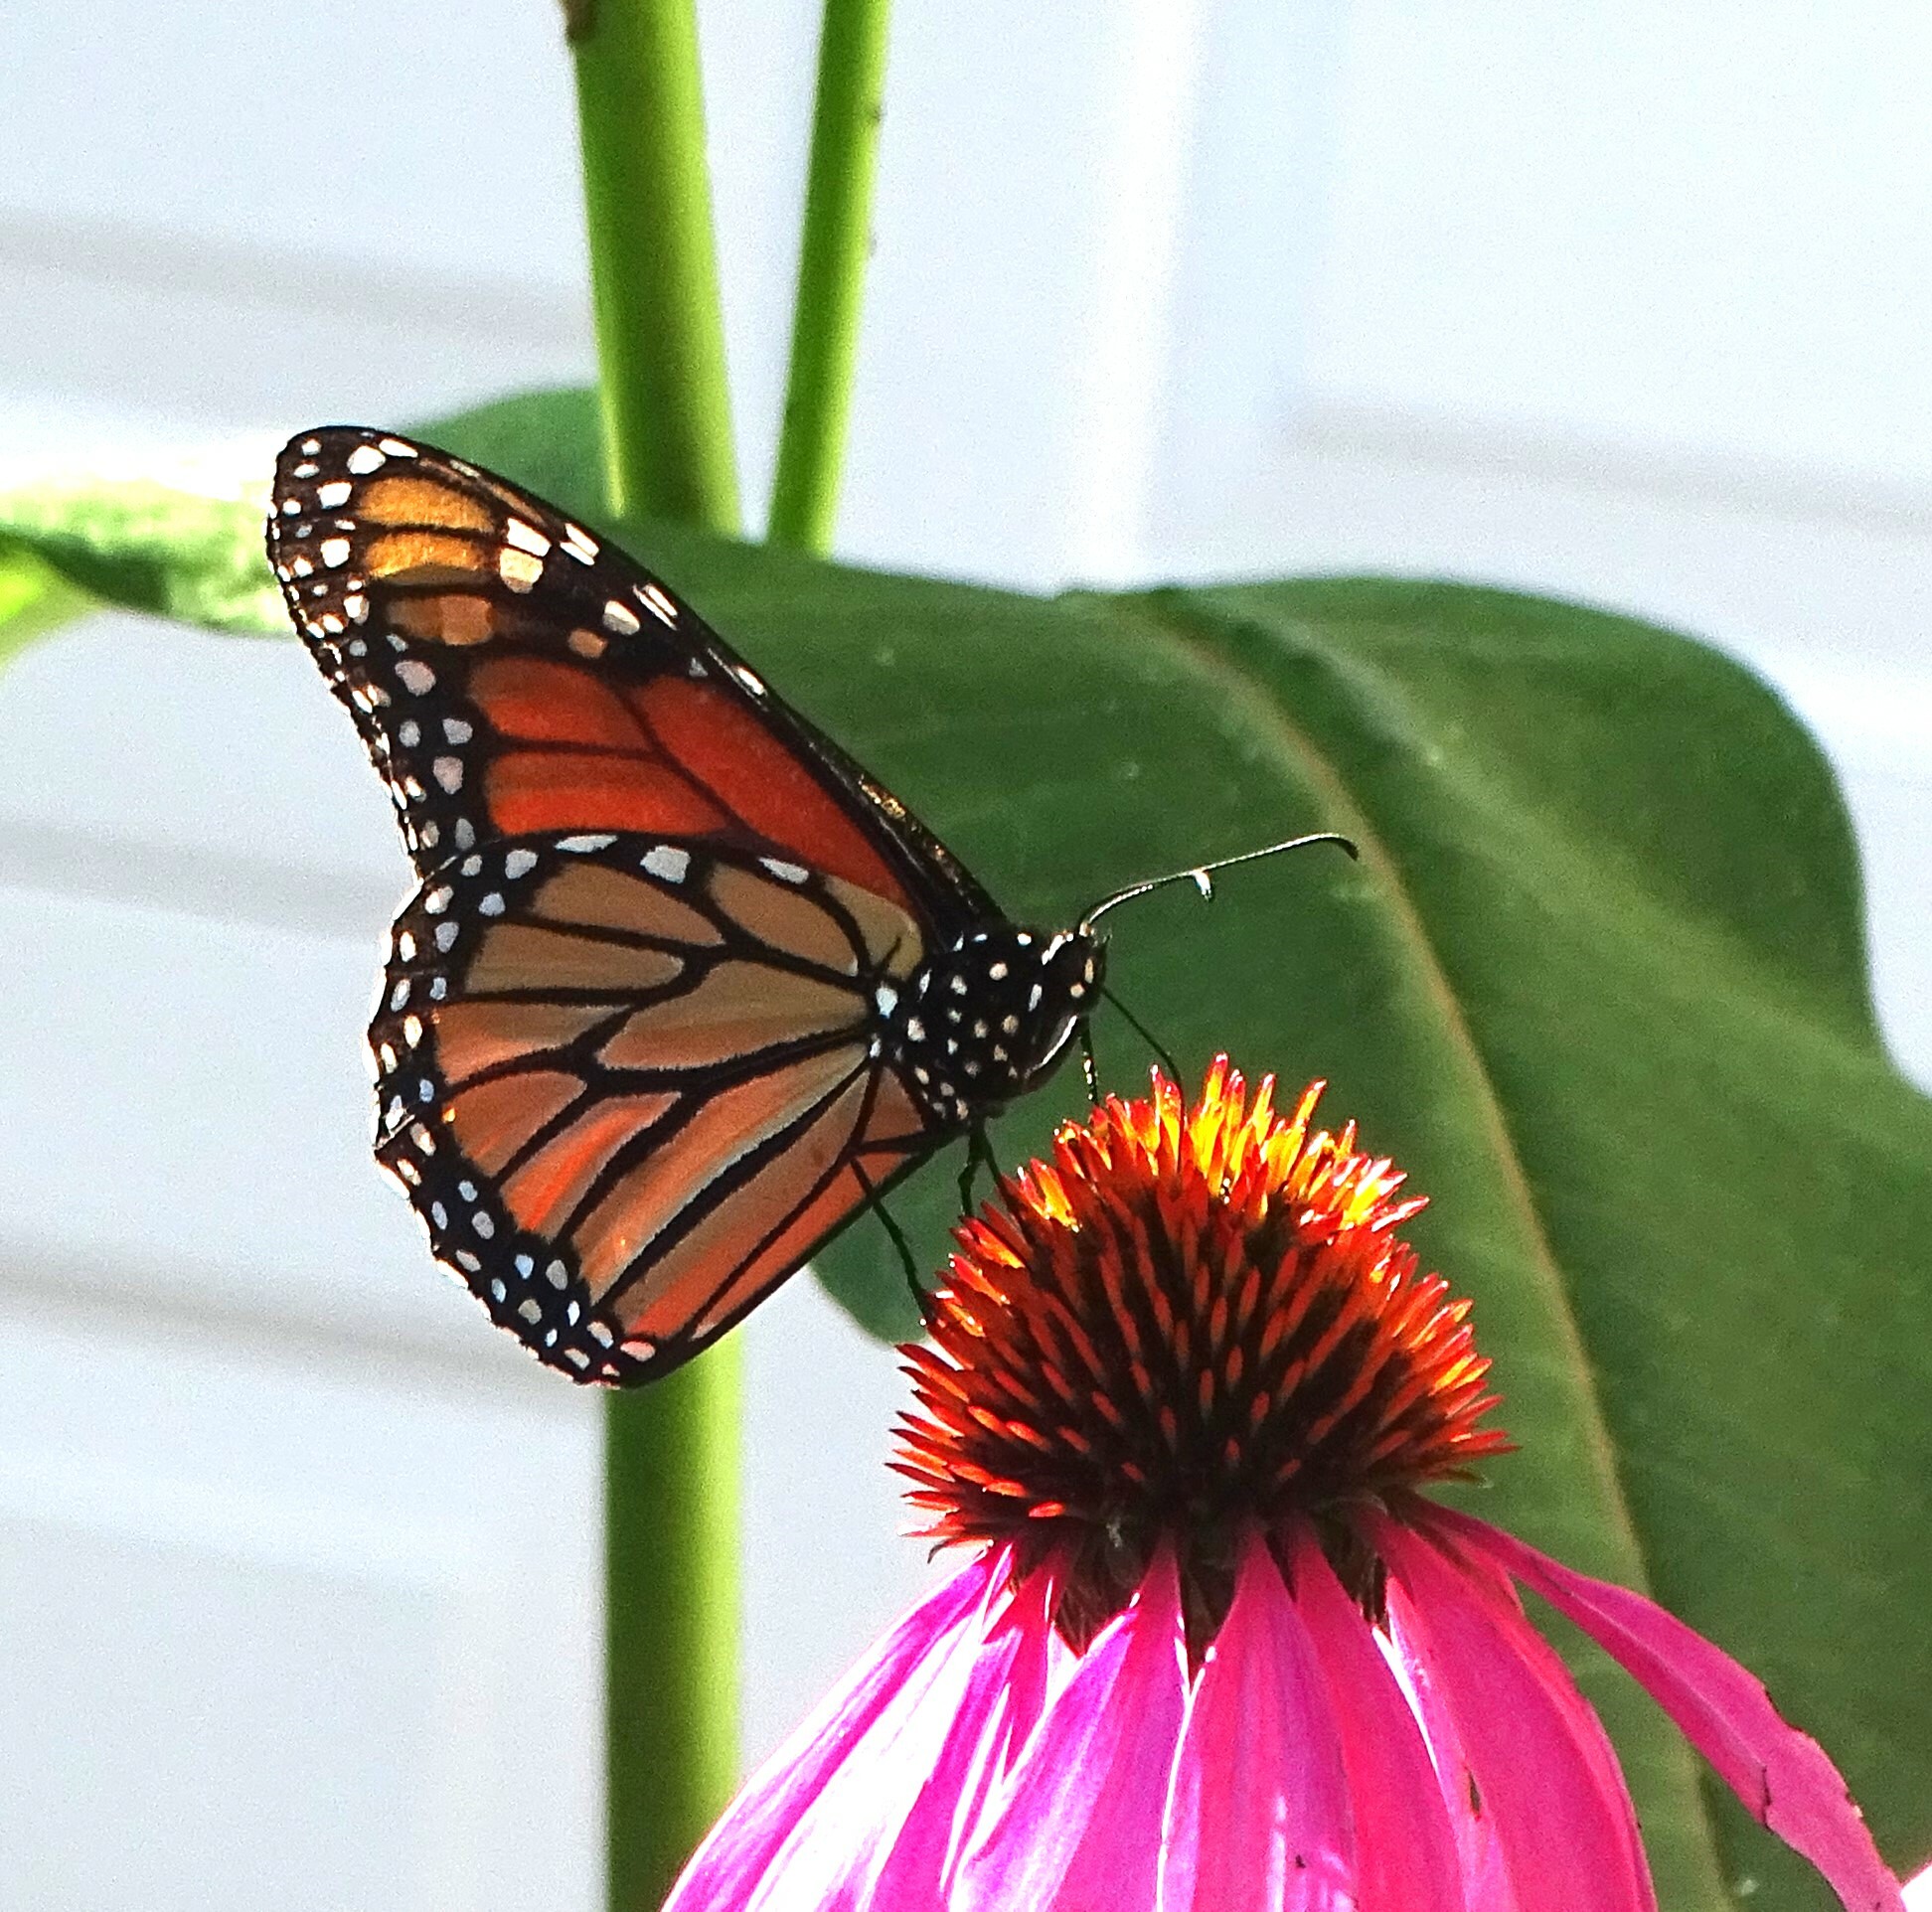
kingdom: Animalia
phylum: Arthropoda
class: Insecta
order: Lepidoptera
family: Nymphalidae
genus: Danaus
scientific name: Danaus plexippus
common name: Monarch
